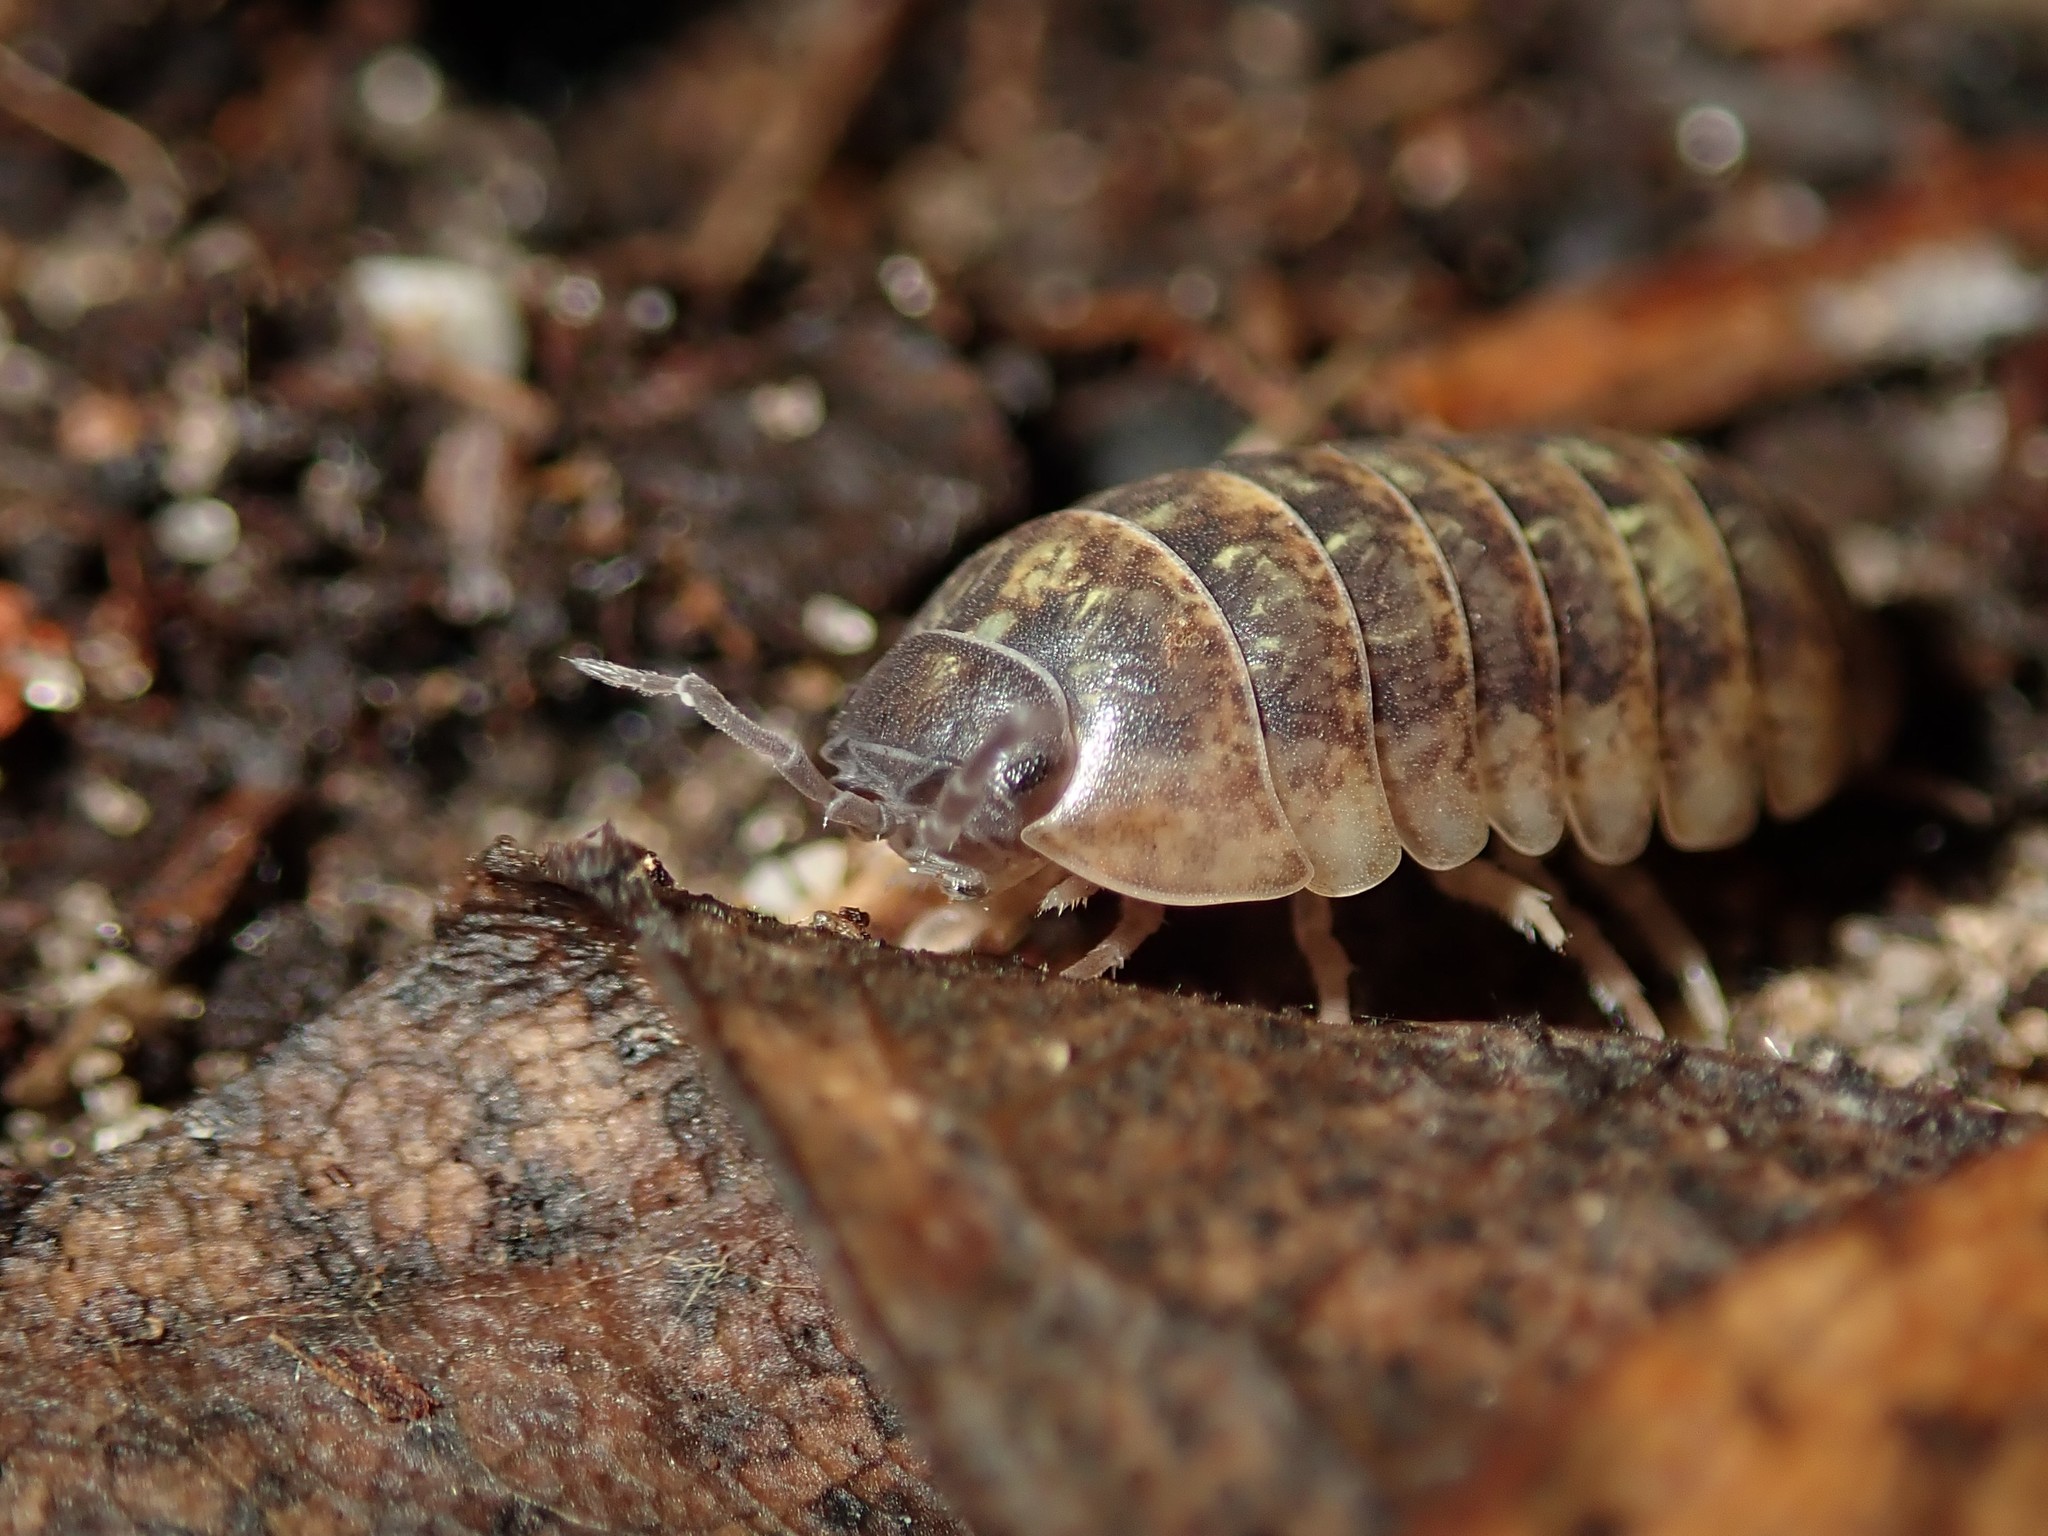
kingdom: Animalia
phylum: Arthropoda
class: Malacostraca
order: Isopoda
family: Armadillidiidae
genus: Armadillidium
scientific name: Armadillidium vulgare
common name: Common pill woodlouse
